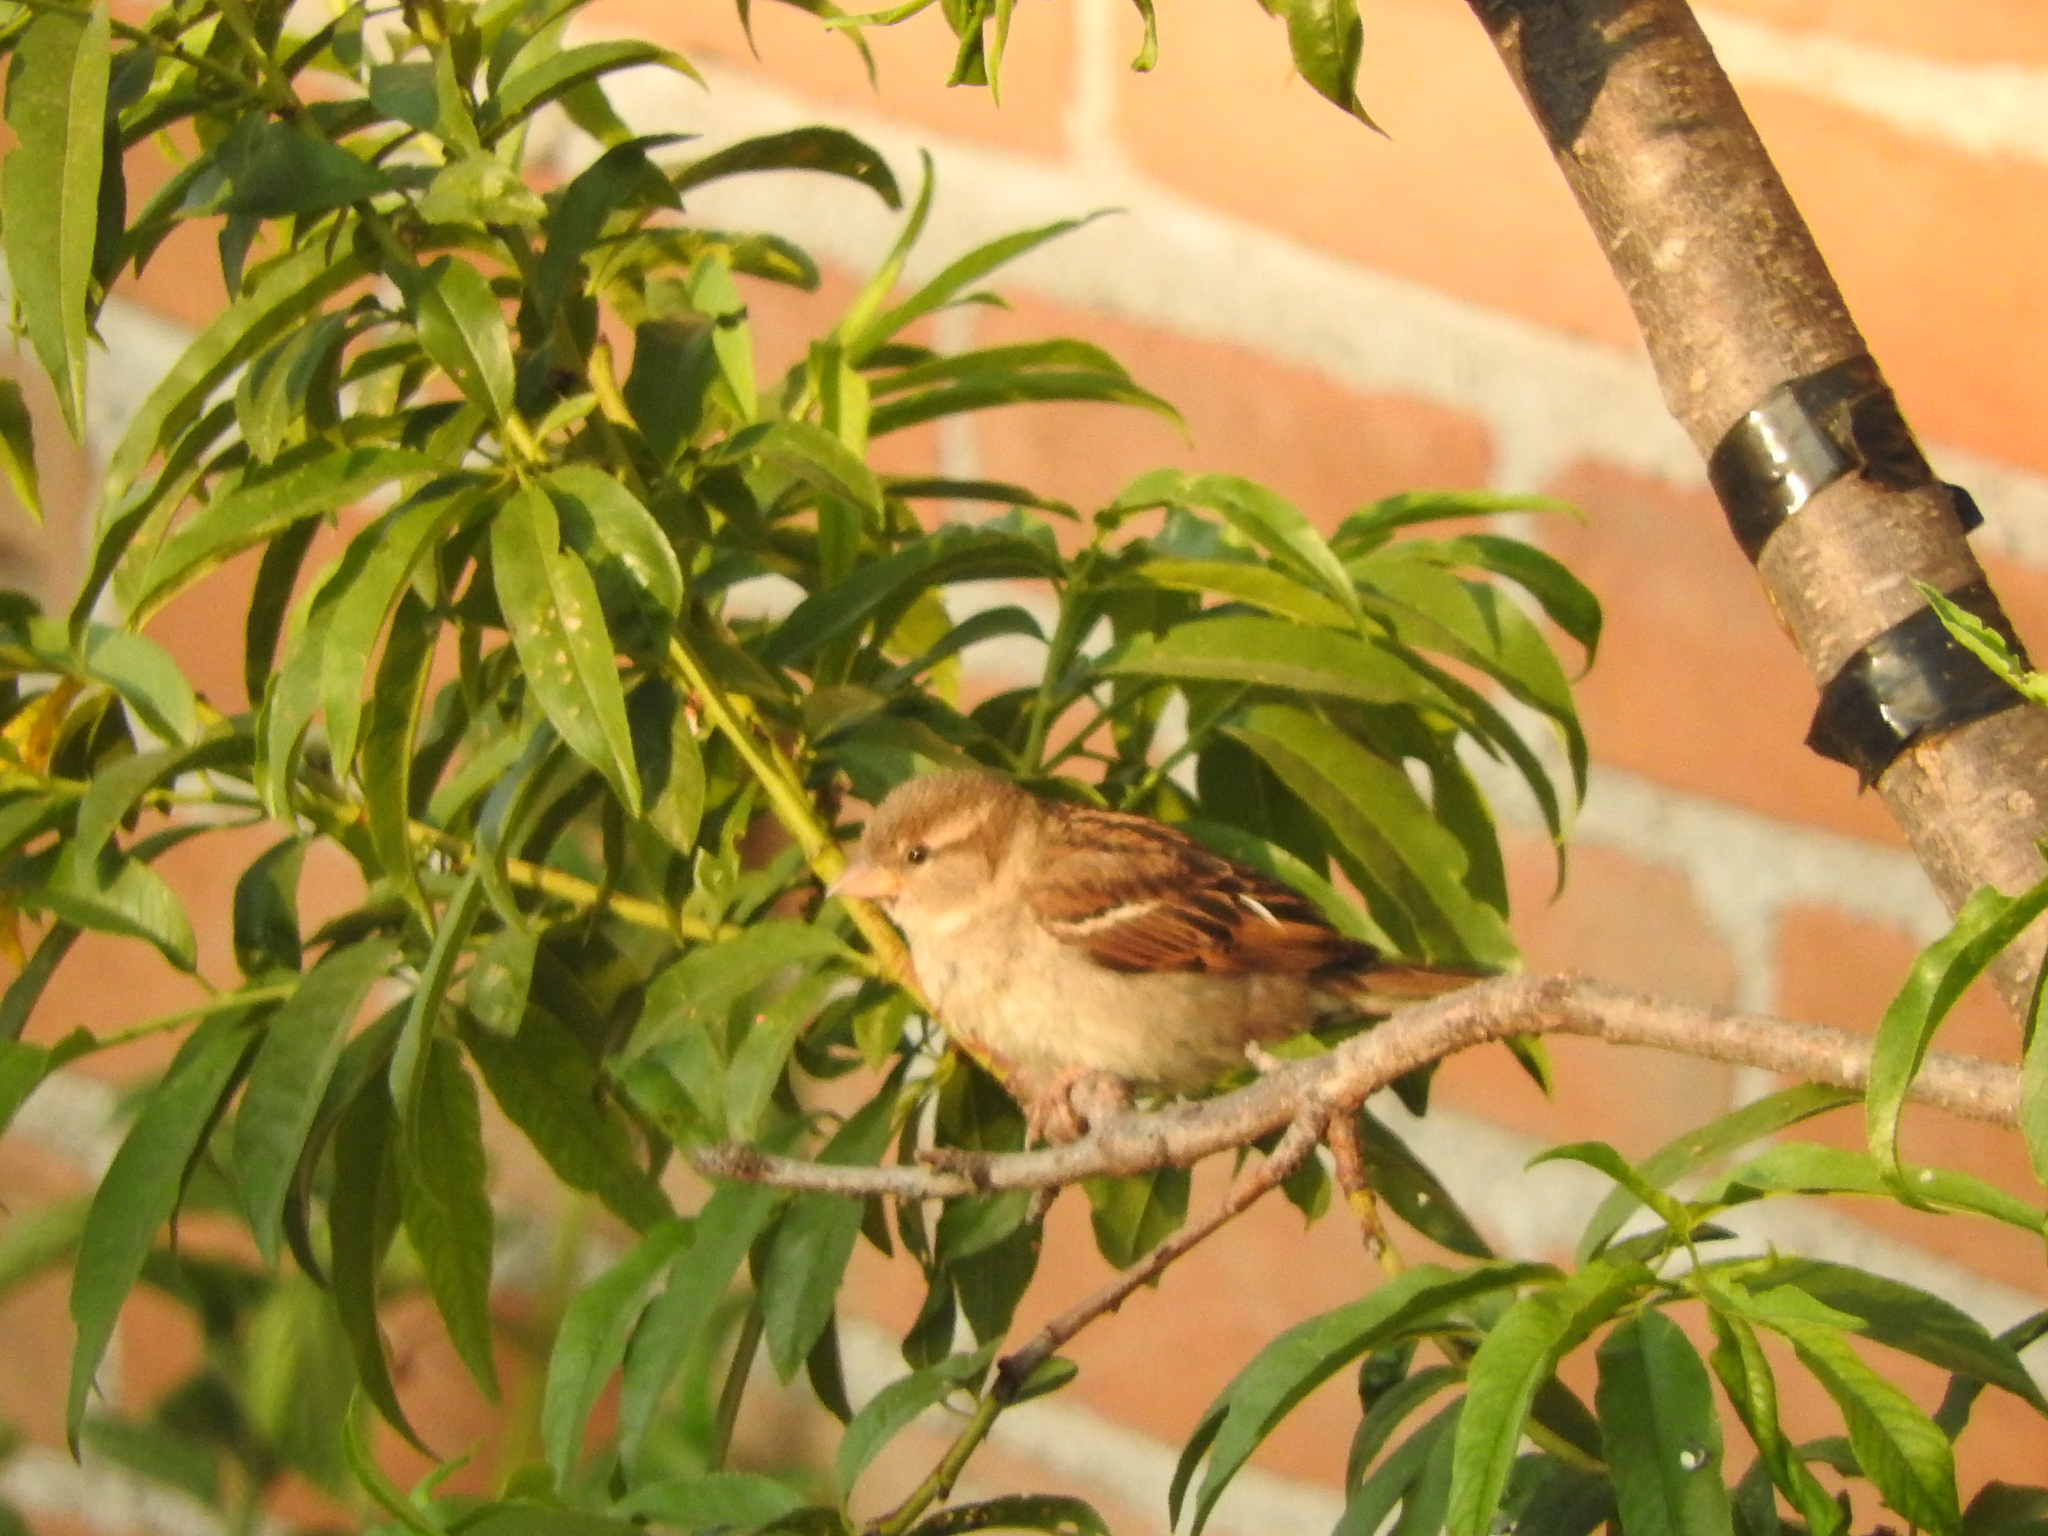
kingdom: Animalia
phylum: Chordata
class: Aves
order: Passeriformes
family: Passeridae
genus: Passer
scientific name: Passer domesticus
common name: House sparrow
